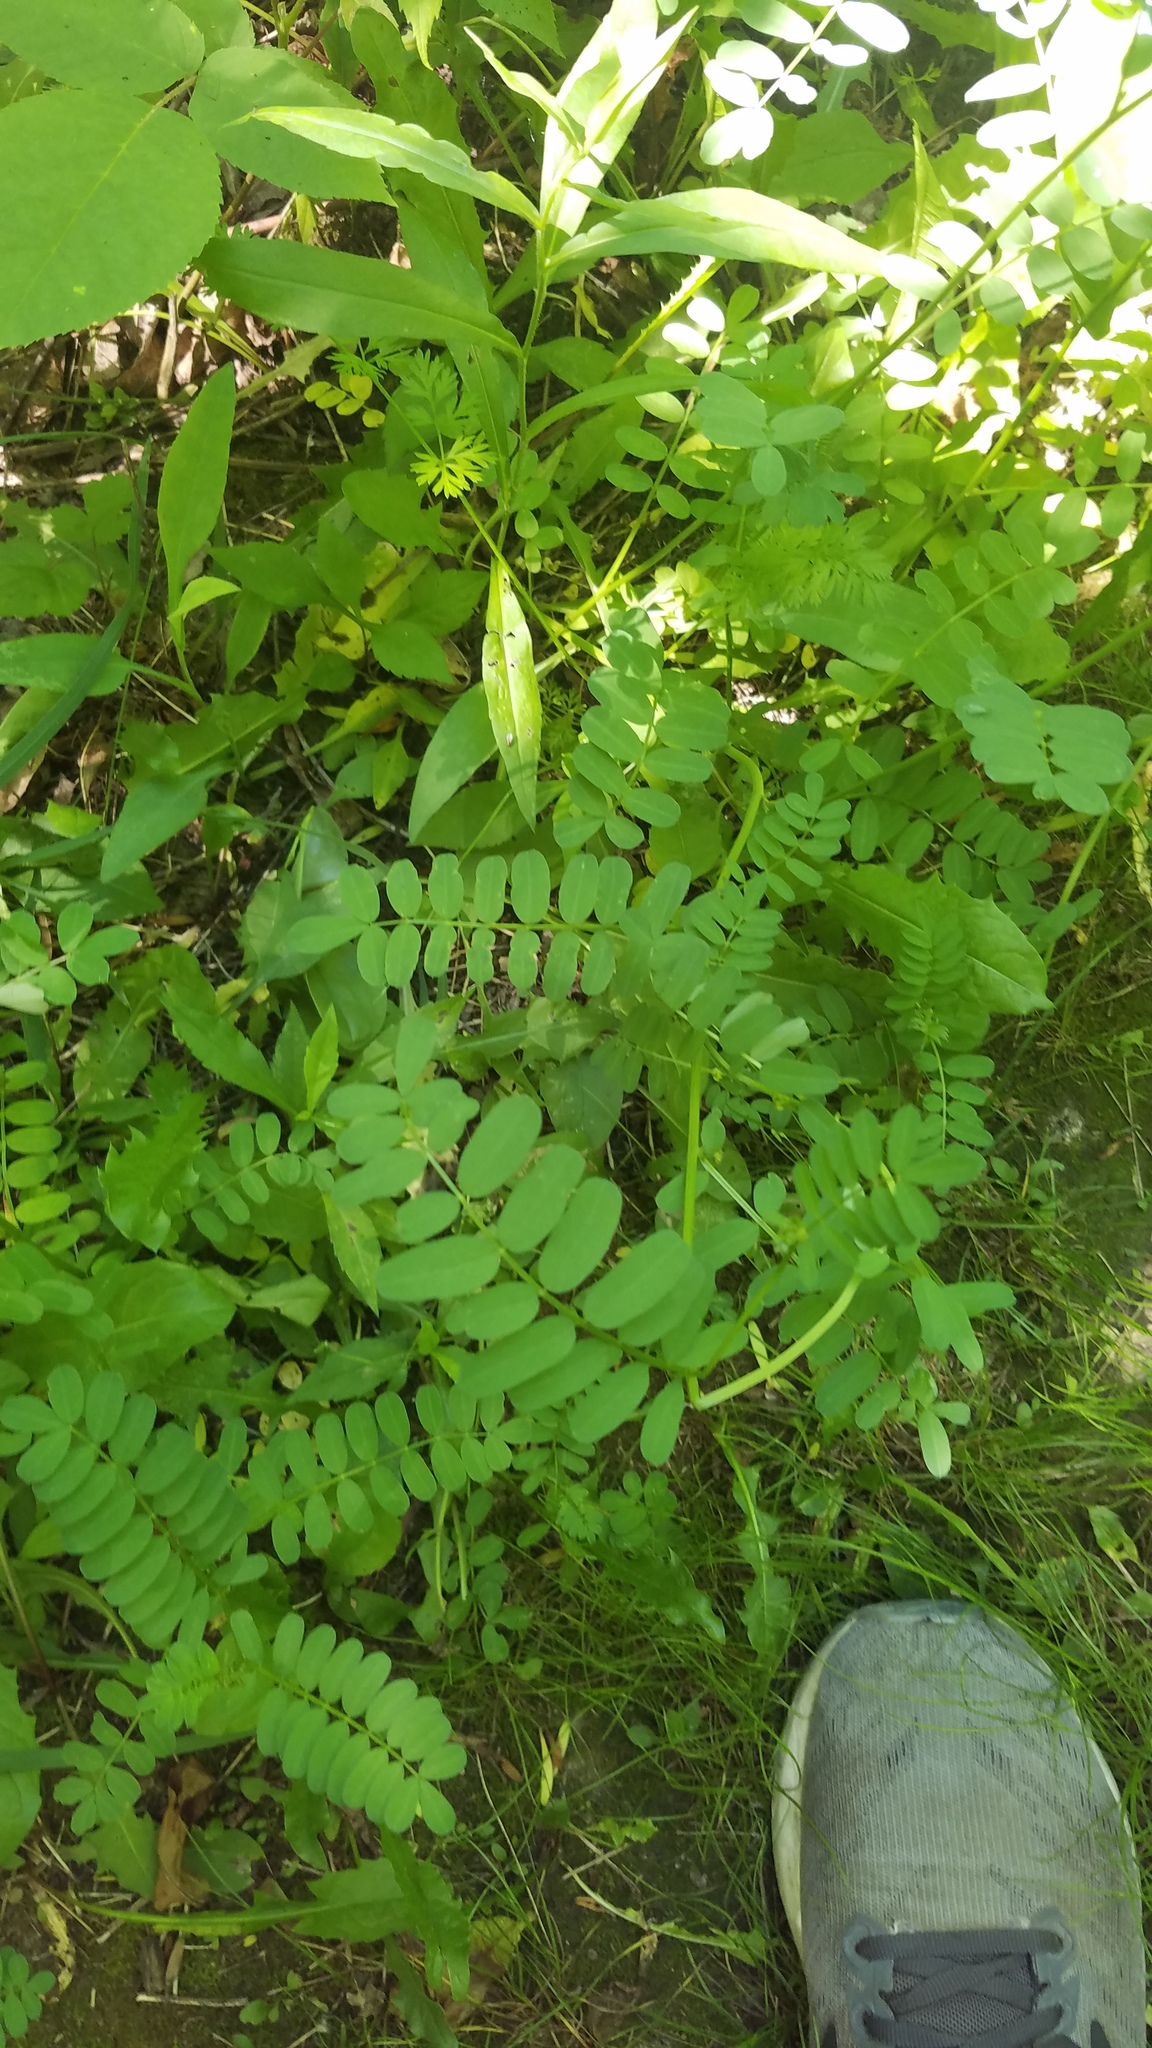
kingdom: Plantae
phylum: Tracheophyta
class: Magnoliopsida
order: Fabales
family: Fabaceae
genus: Coronilla
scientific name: Coronilla varia
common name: Crownvetch
